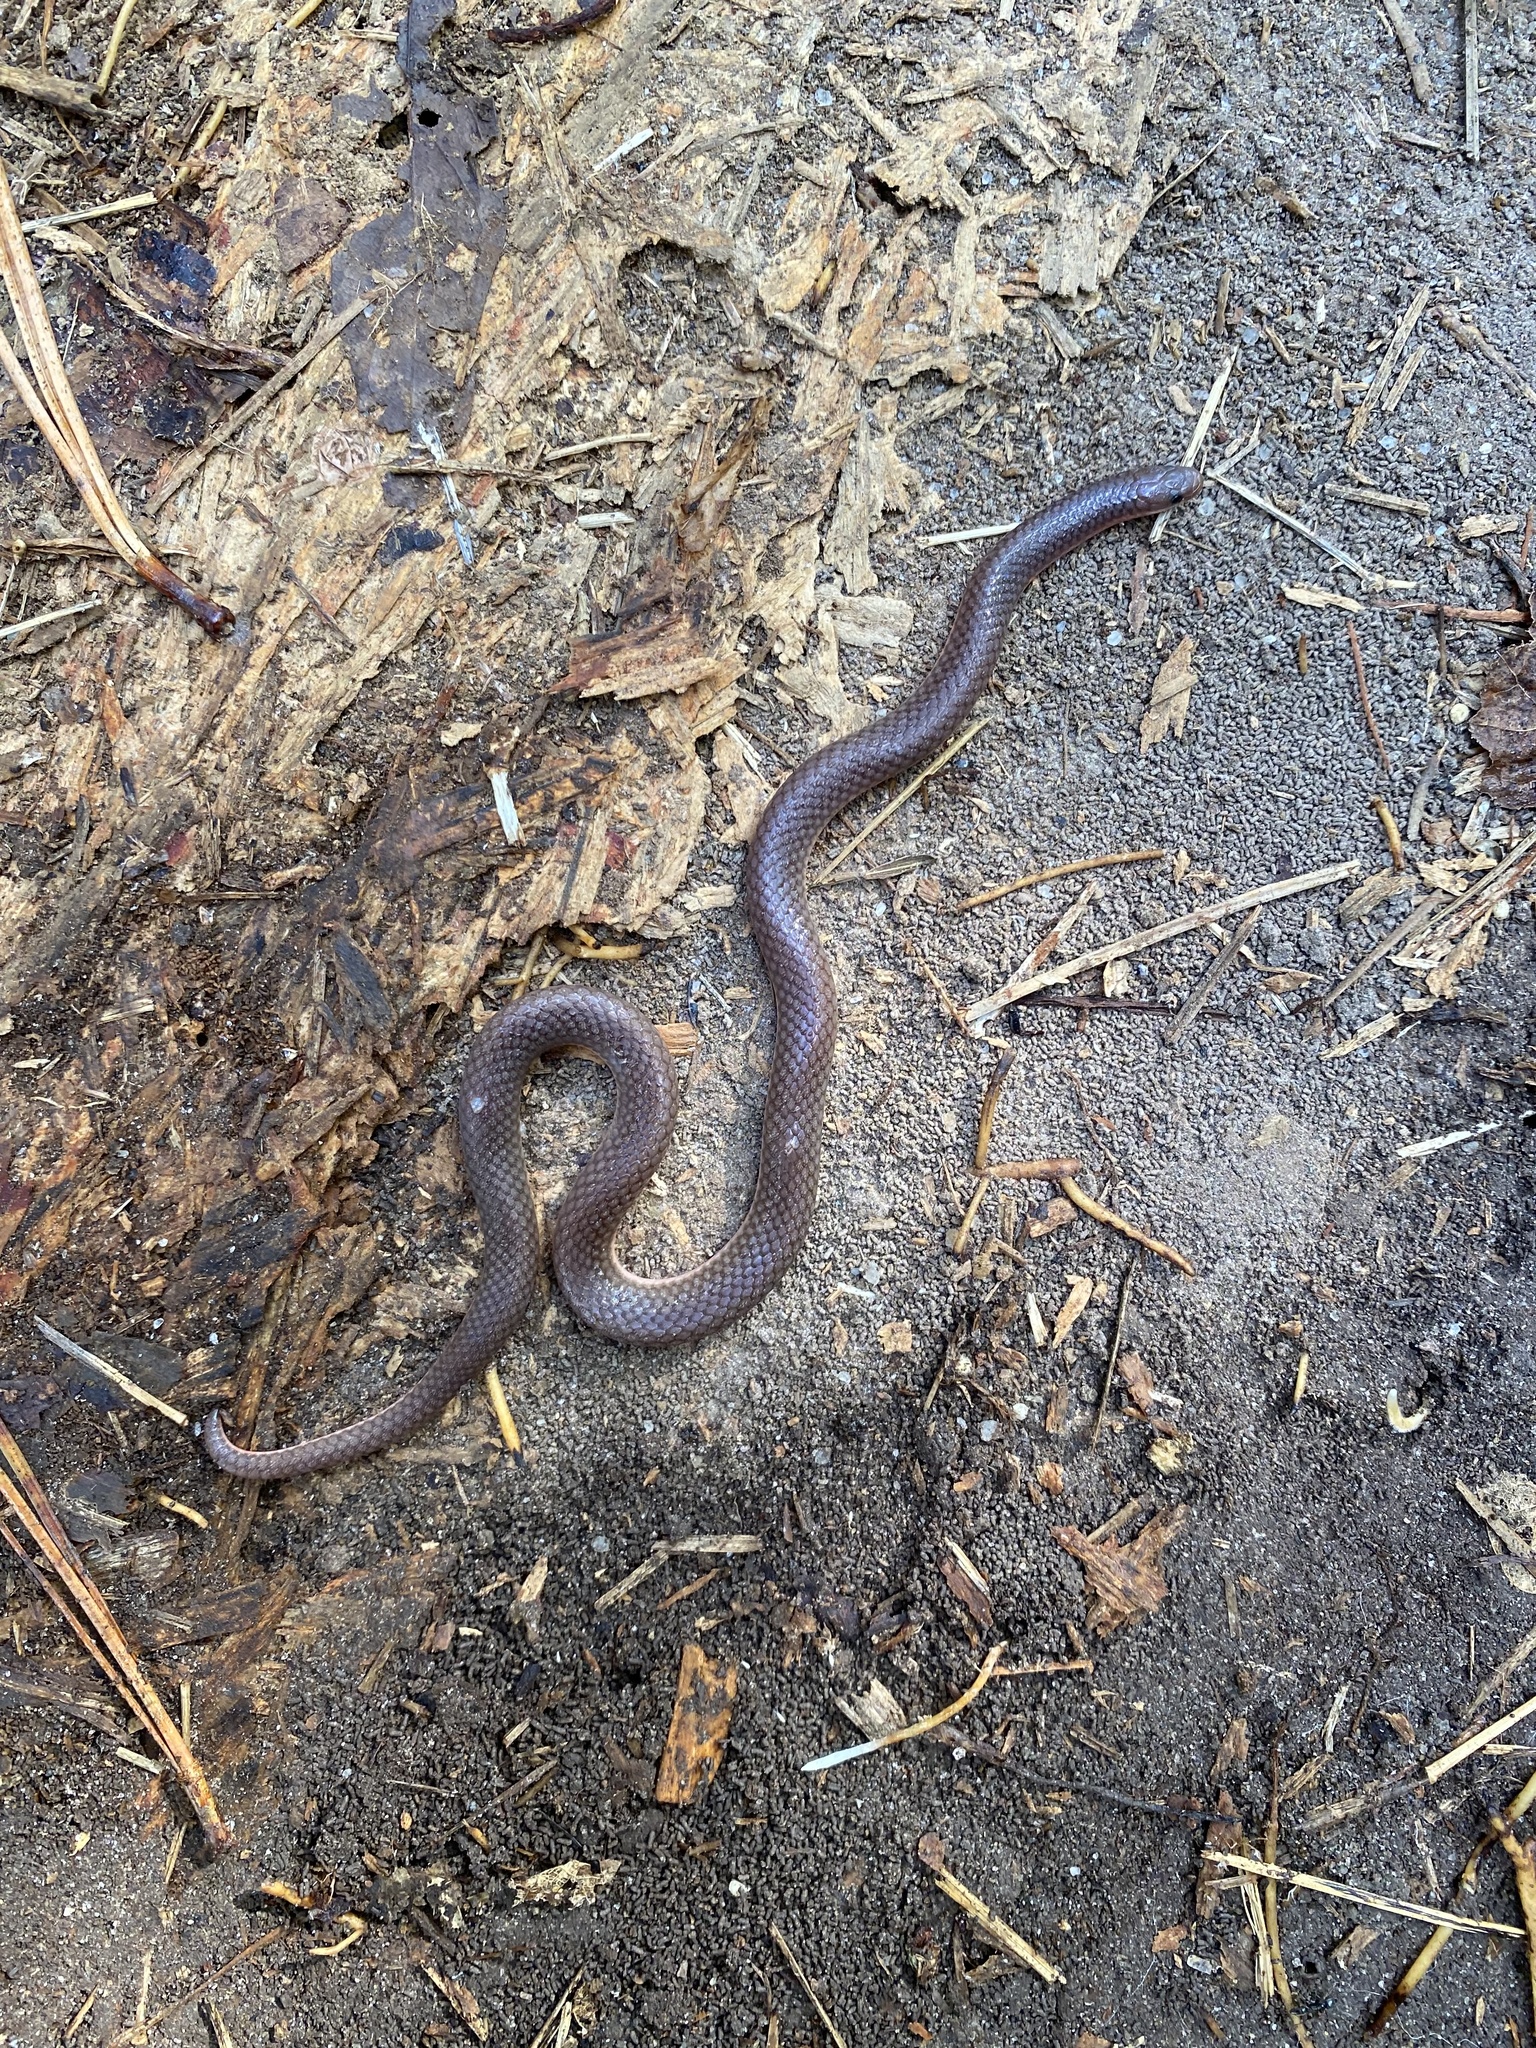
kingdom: Animalia
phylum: Chordata
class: Squamata
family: Colubridae
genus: Carphophis
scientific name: Carphophis amoenus
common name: Eastern worm snake
